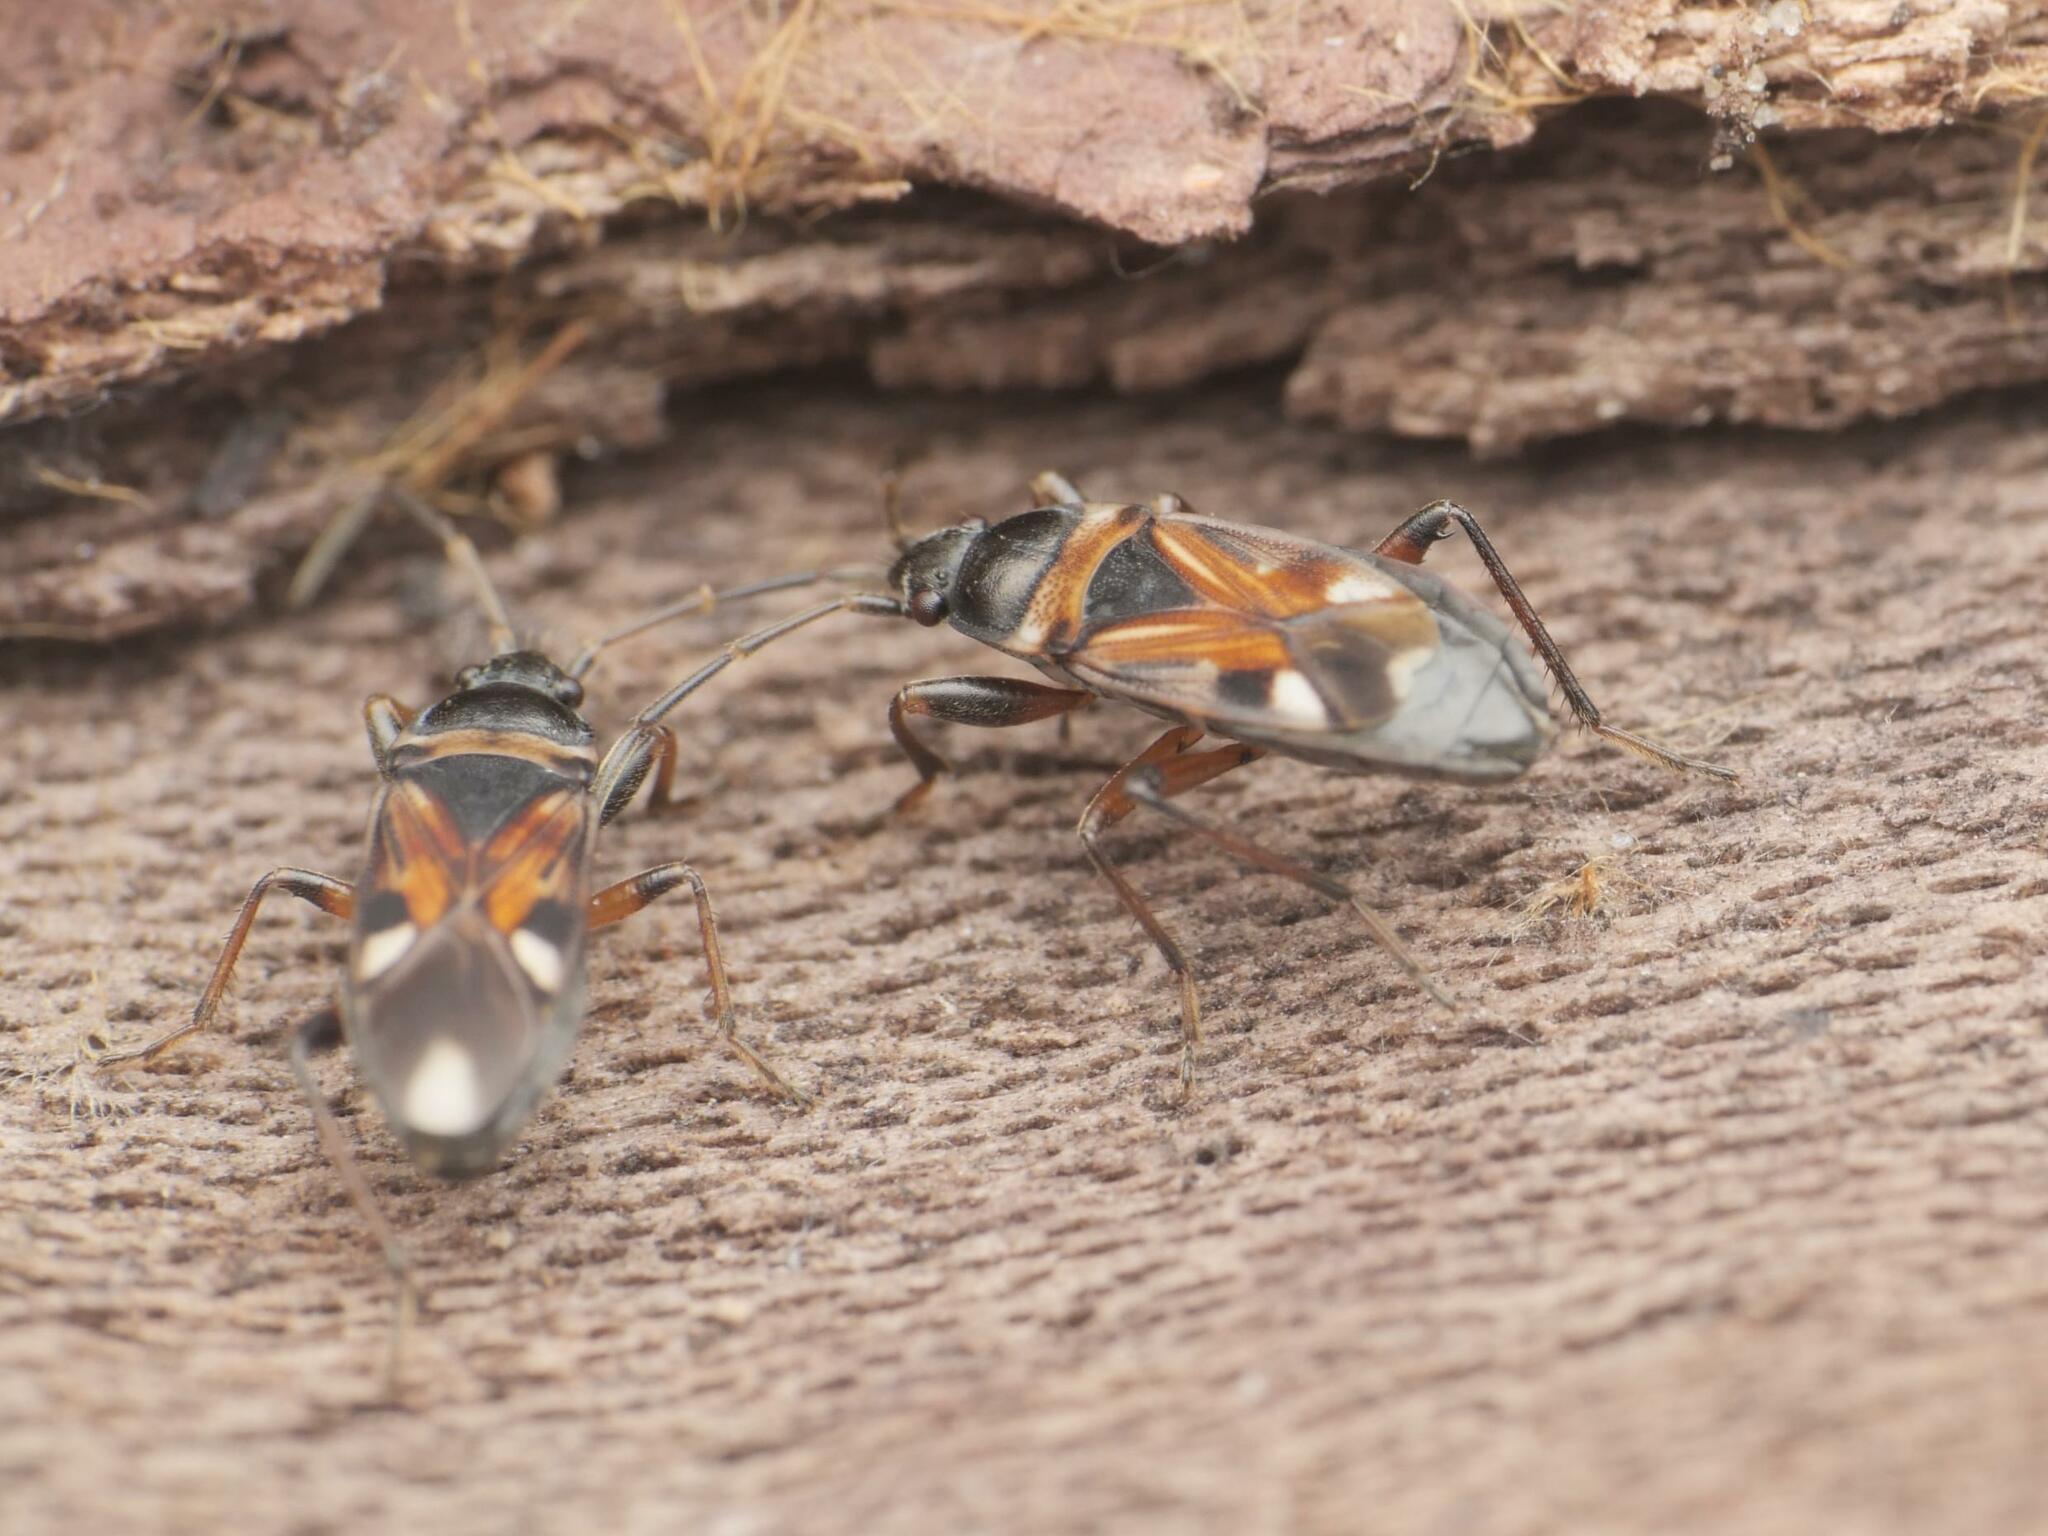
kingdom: Animalia
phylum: Arthropoda
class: Insecta
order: Hemiptera
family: Rhyparochromidae
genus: Raglius
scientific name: Raglius alboacuminatus
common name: Dirt-colored seed bug
